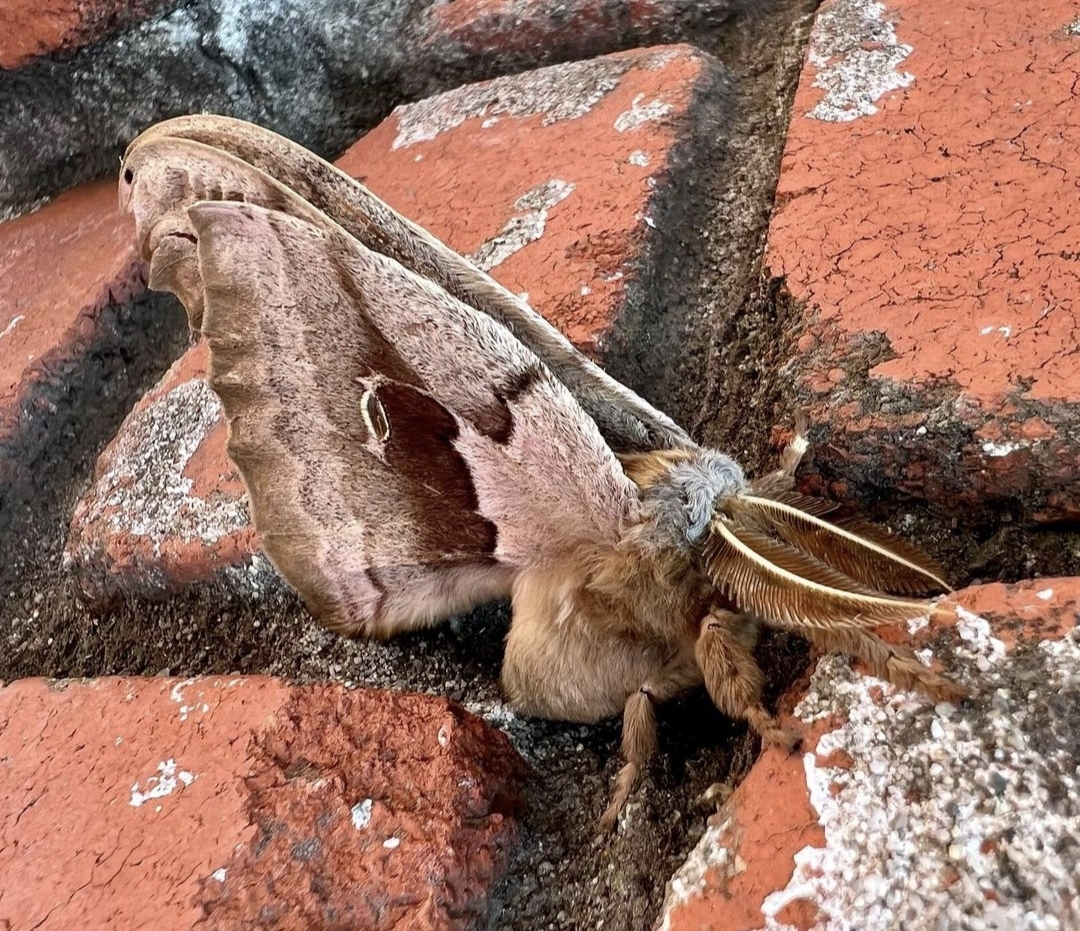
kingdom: Animalia
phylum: Arthropoda
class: Insecta
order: Lepidoptera
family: Saturniidae
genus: Antheraea
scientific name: Antheraea polyphemus
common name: Polyphemus moth
